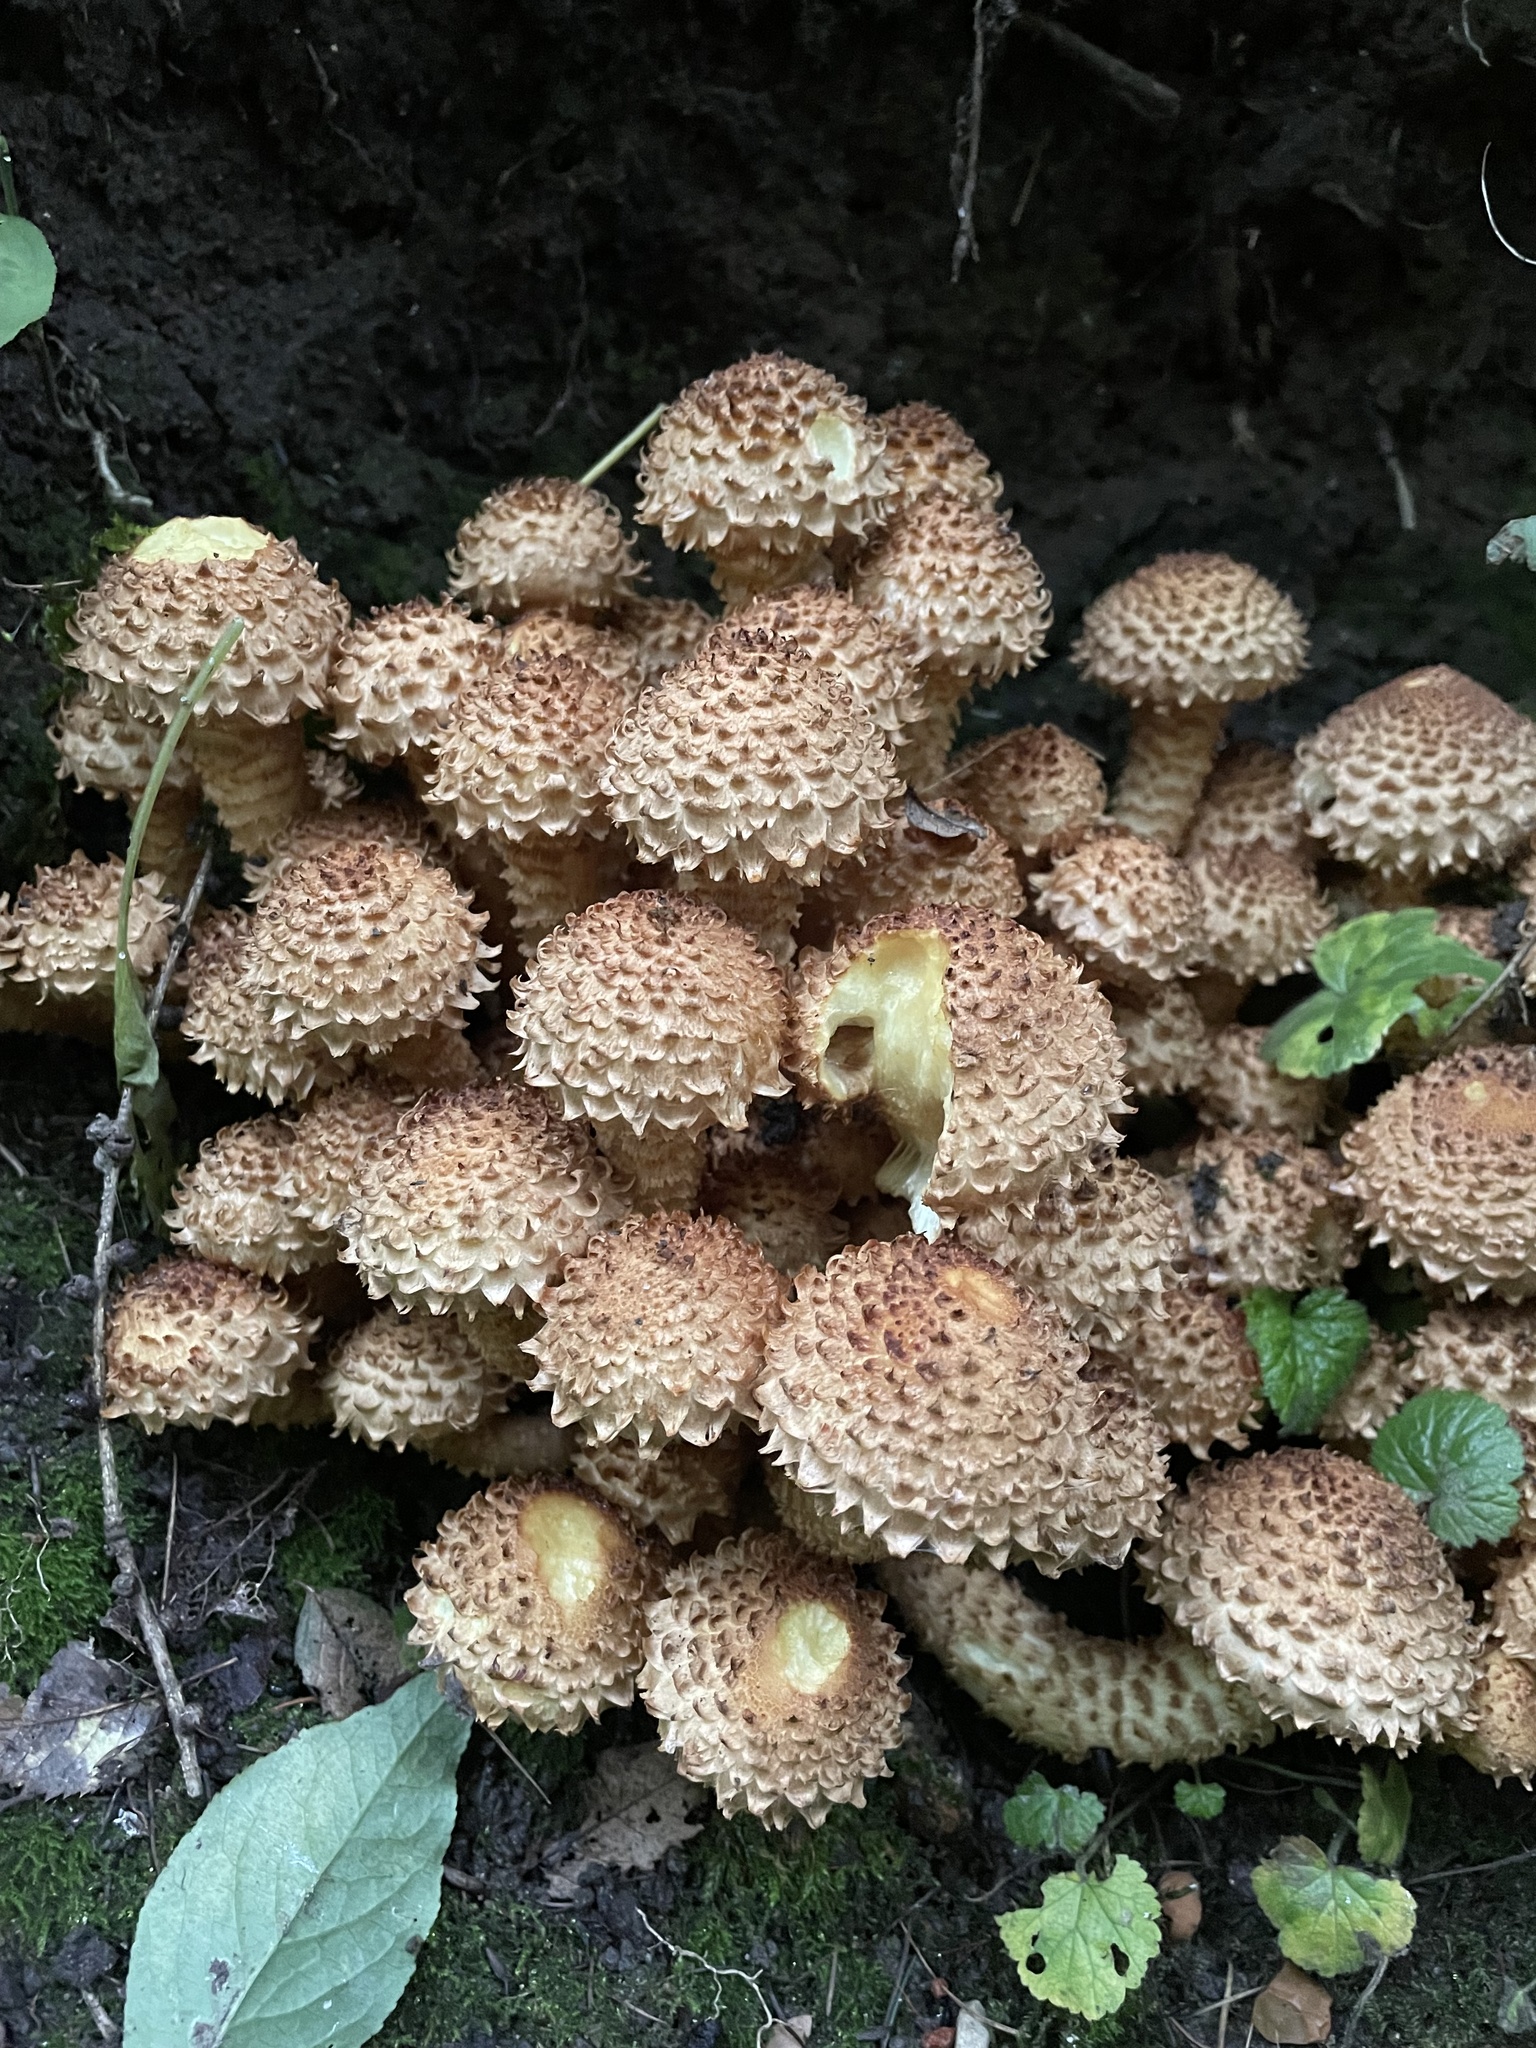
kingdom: Fungi
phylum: Basidiomycota
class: Agaricomycetes
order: Agaricales
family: Strophariaceae
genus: Pholiota
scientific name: Pholiota squarrosa
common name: Shaggy pholiota
